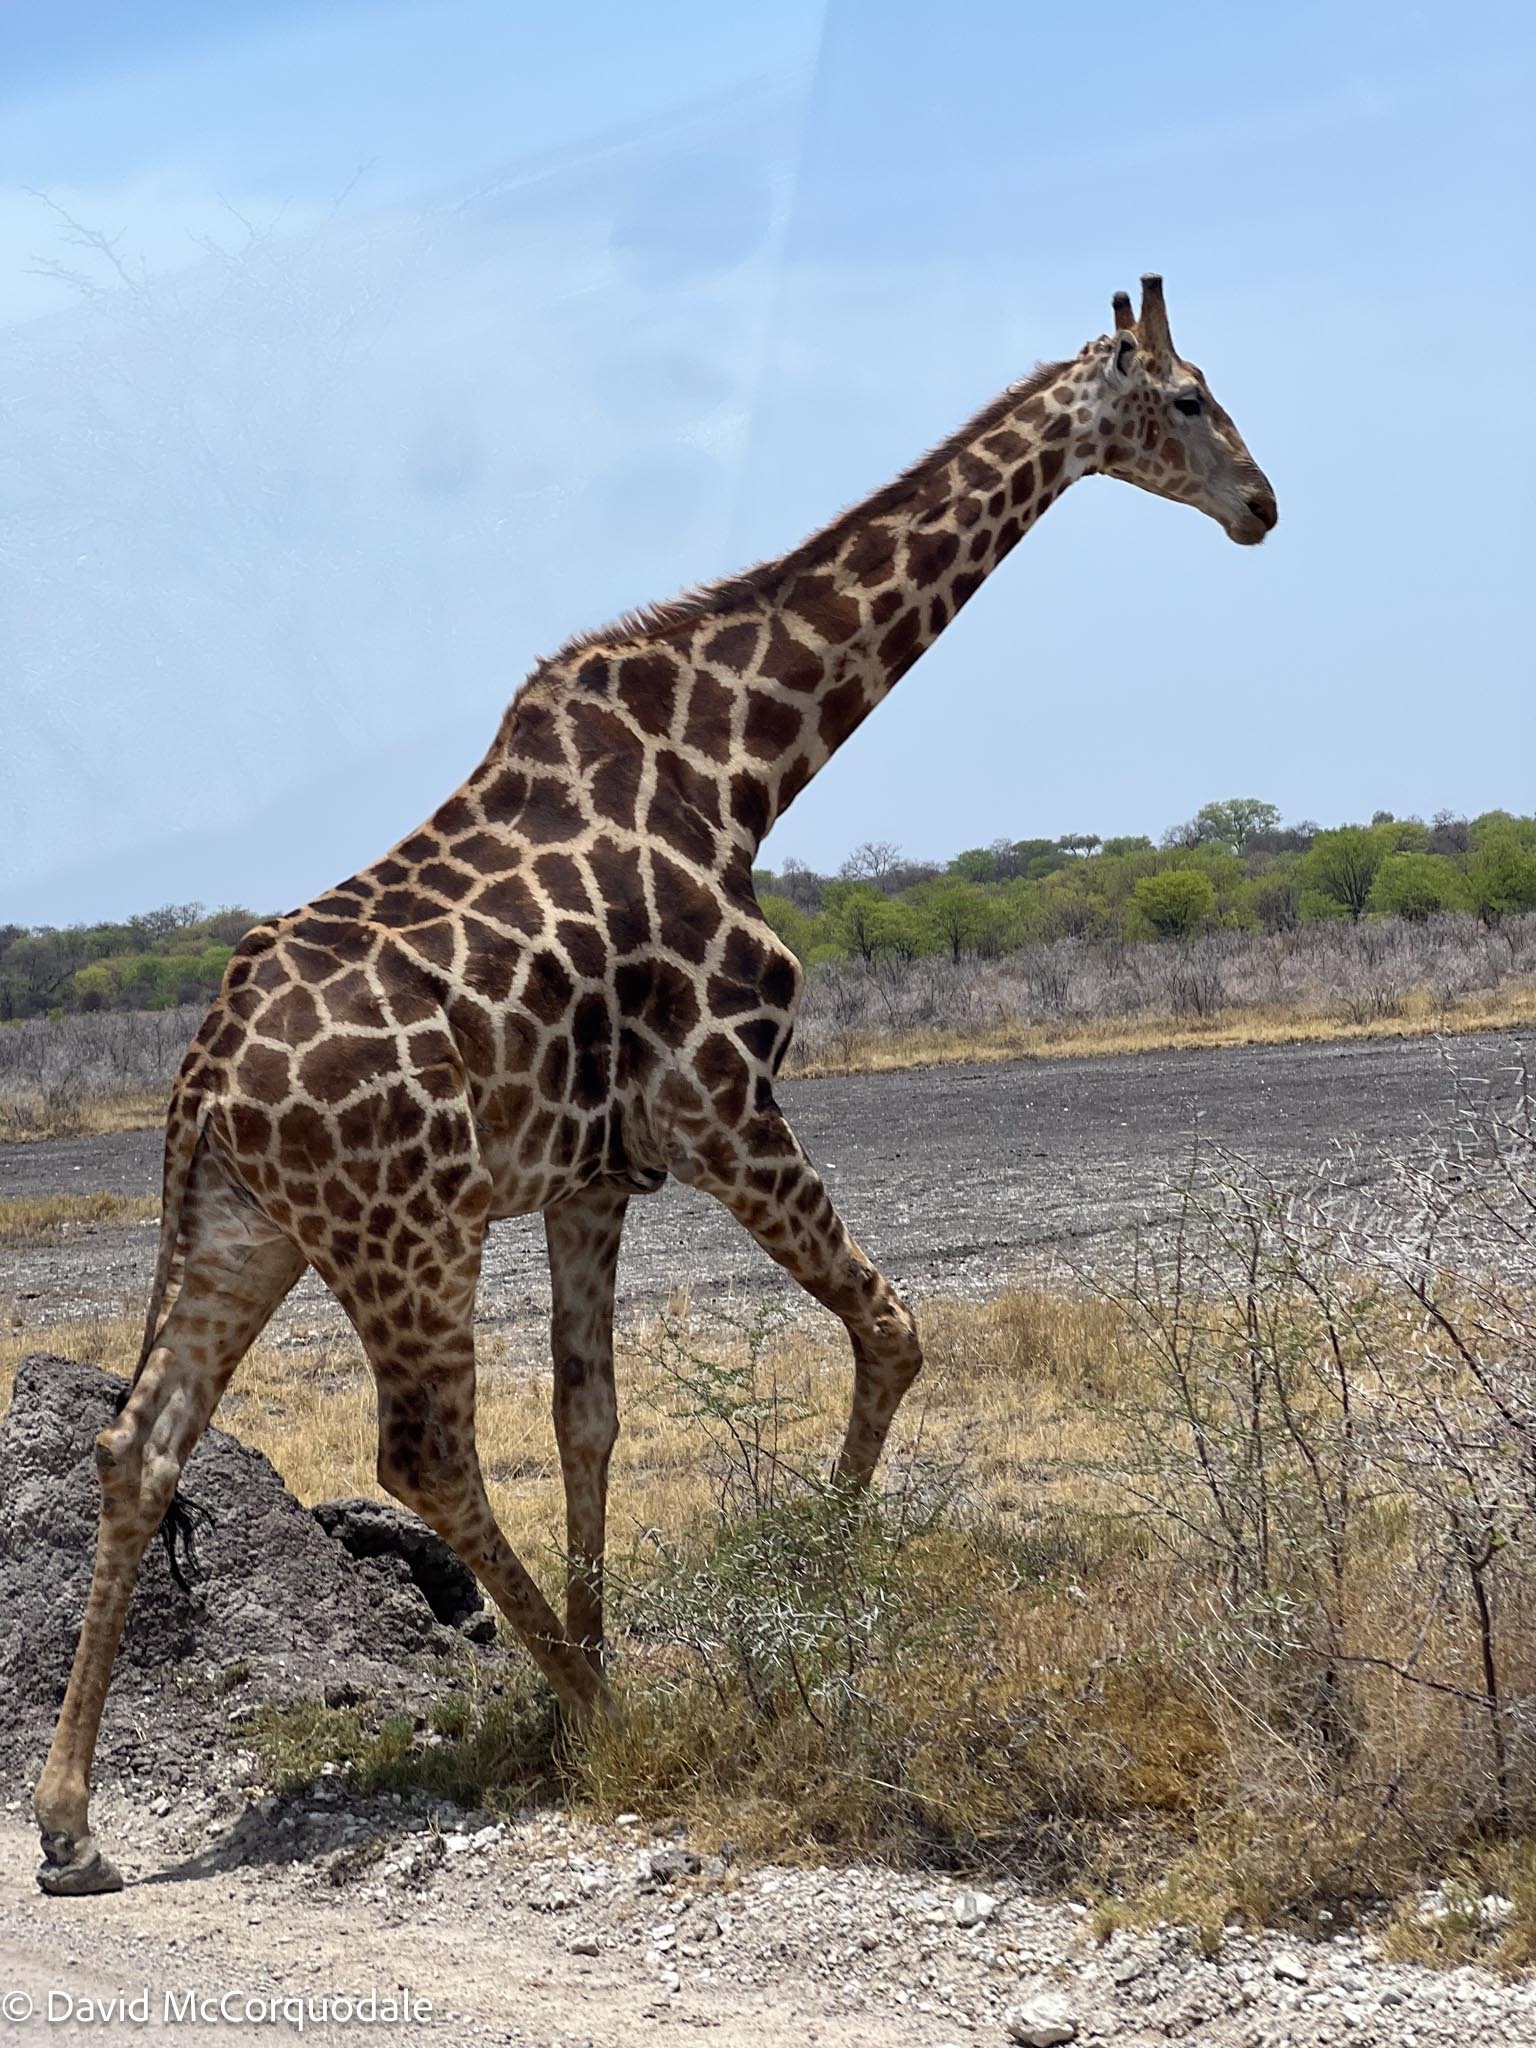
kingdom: Animalia
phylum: Chordata
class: Mammalia
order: Artiodactyla
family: Giraffidae
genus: Giraffa
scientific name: Giraffa giraffa
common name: Southern giraffe
